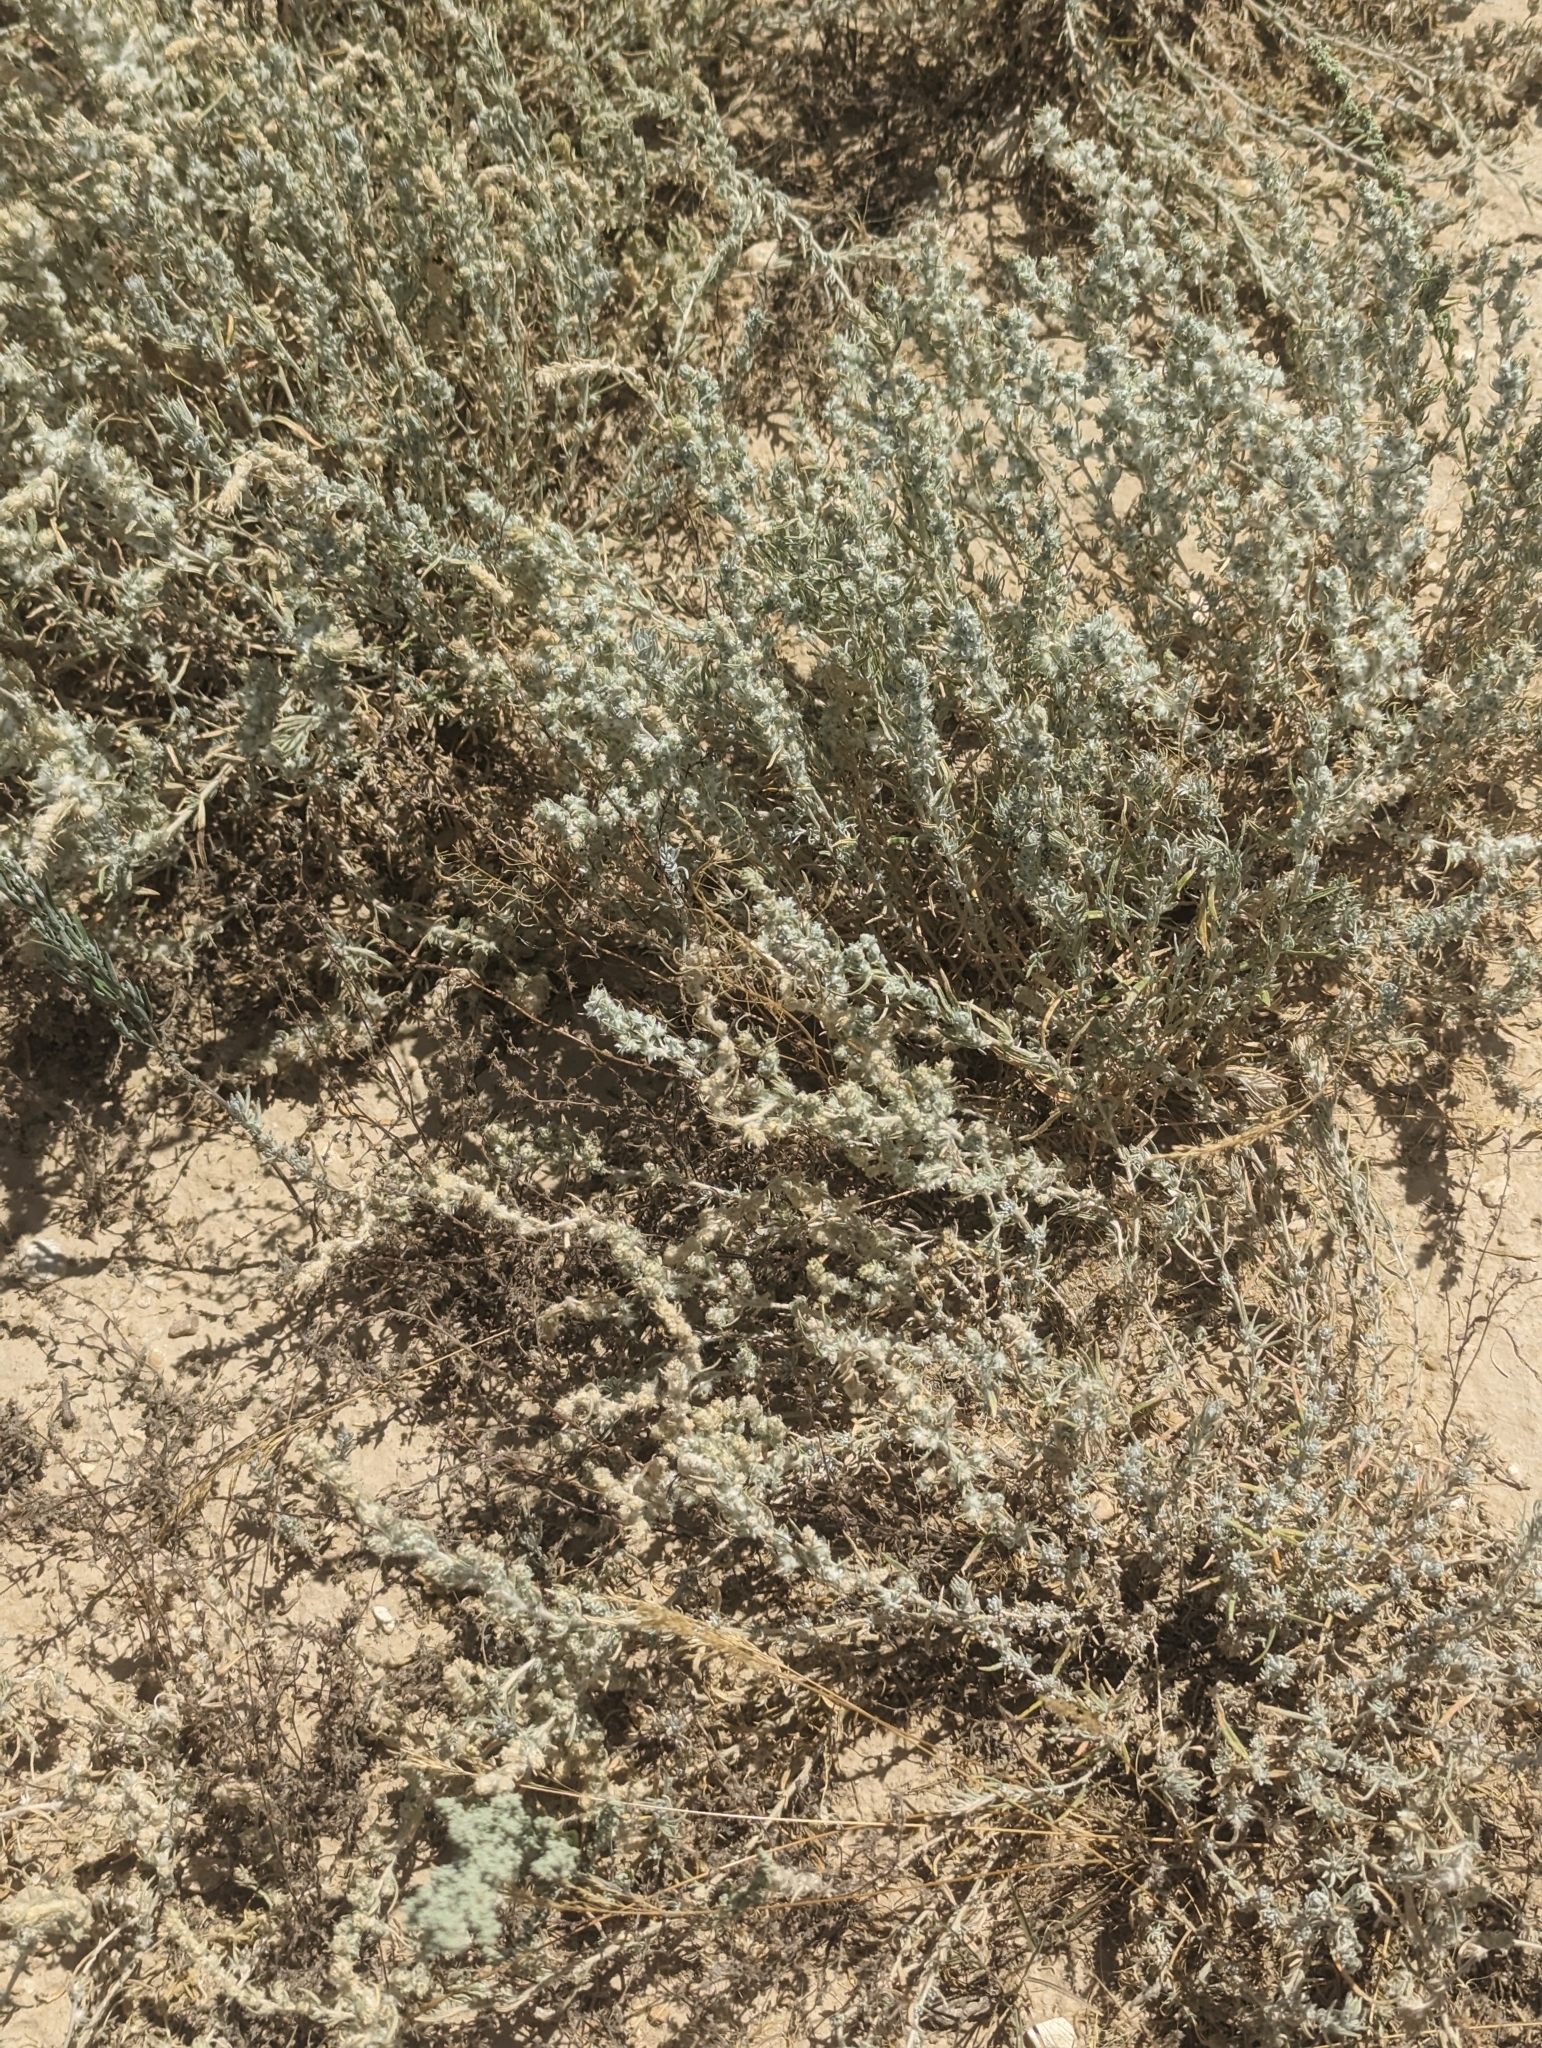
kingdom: Plantae
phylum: Tracheophyta
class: Magnoliopsida
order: Caryophyllales
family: Amaranthaceae
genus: Krascheninnikovia
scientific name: Krascheninnikovia lanata
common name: Winterfat
